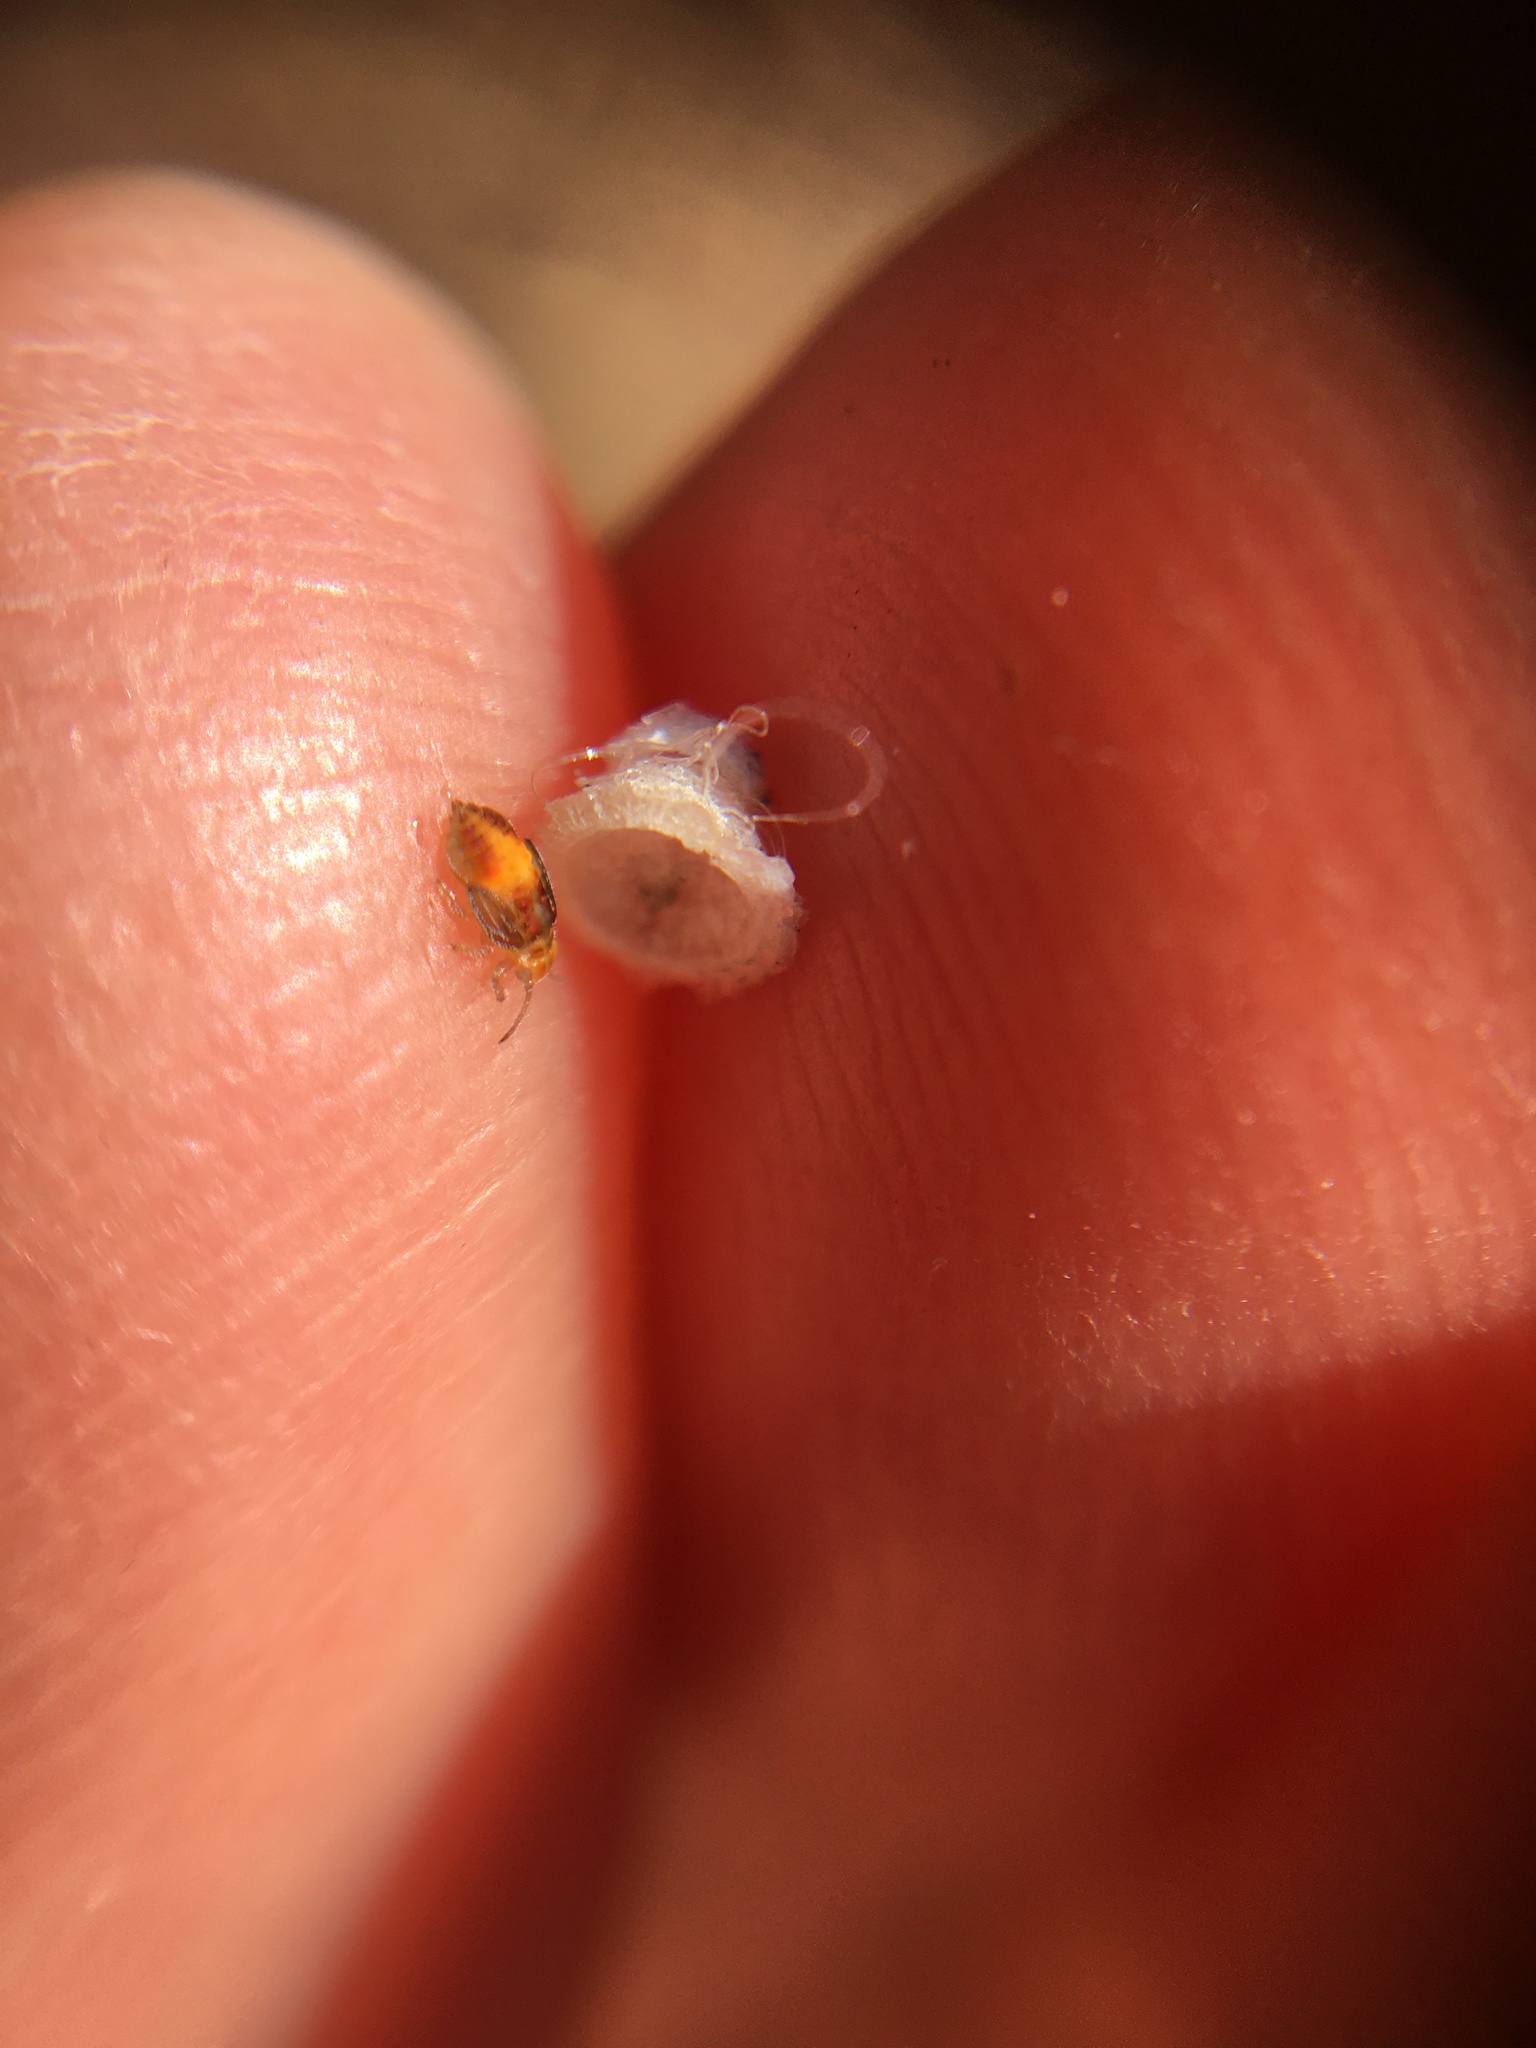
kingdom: Animalia
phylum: Arthropoda
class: Insecta
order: Hemiptera
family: Aphalaridae
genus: Glycaspis
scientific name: Glycaspis brimblecombei
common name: Red gum lerp psyllid
